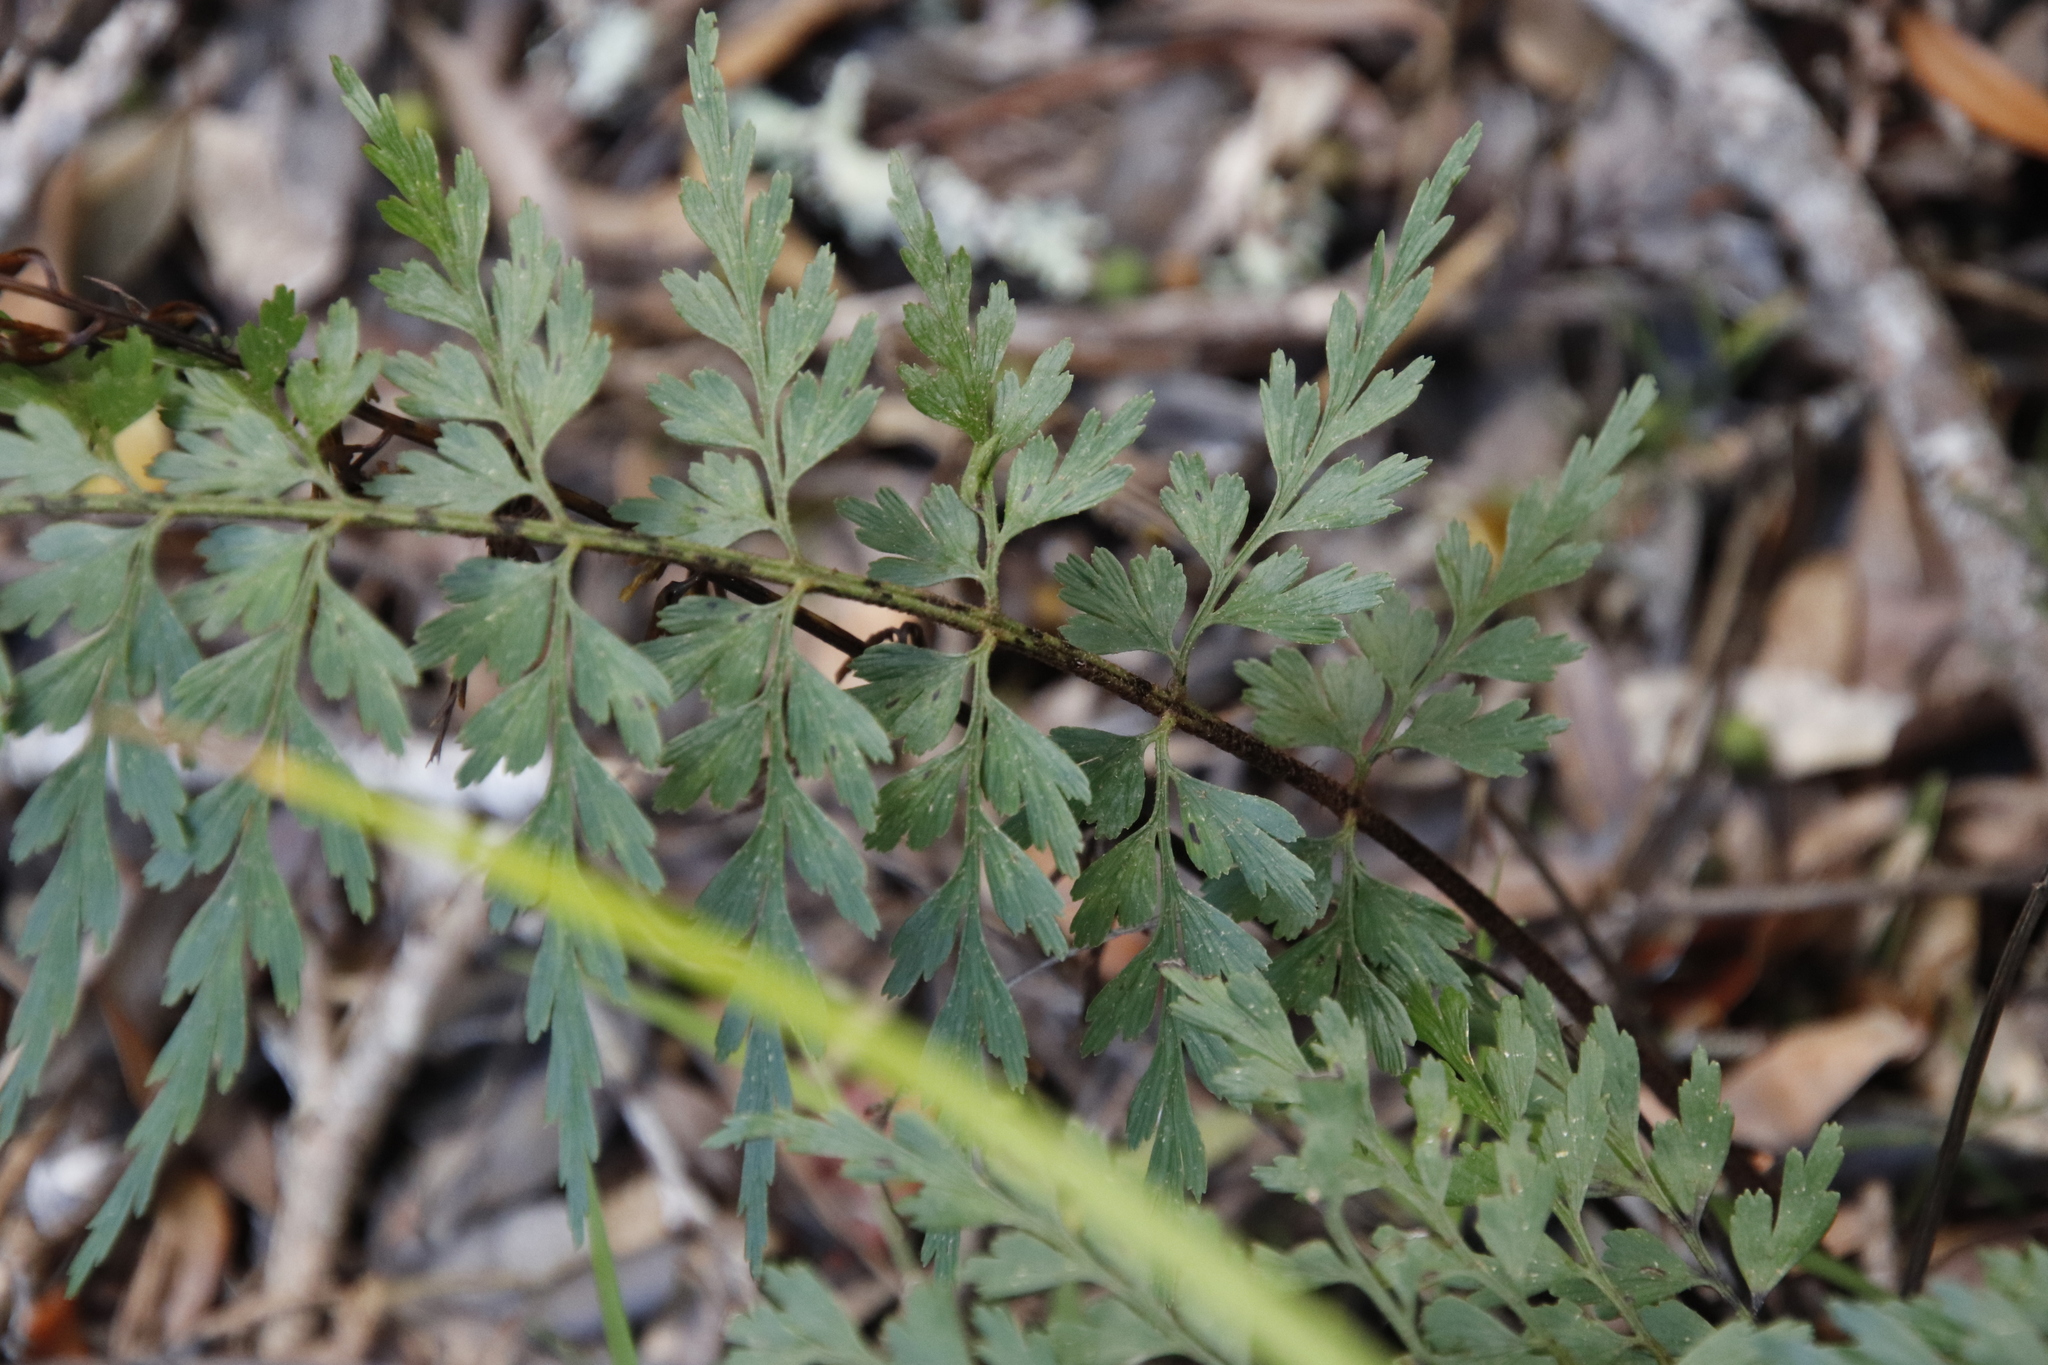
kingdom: Plantae
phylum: Tracheophyta
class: Polypodiopsida
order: Polypodiales
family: Aspleniaceae
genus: Asplenium
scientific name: Asplenium aethiopicum
